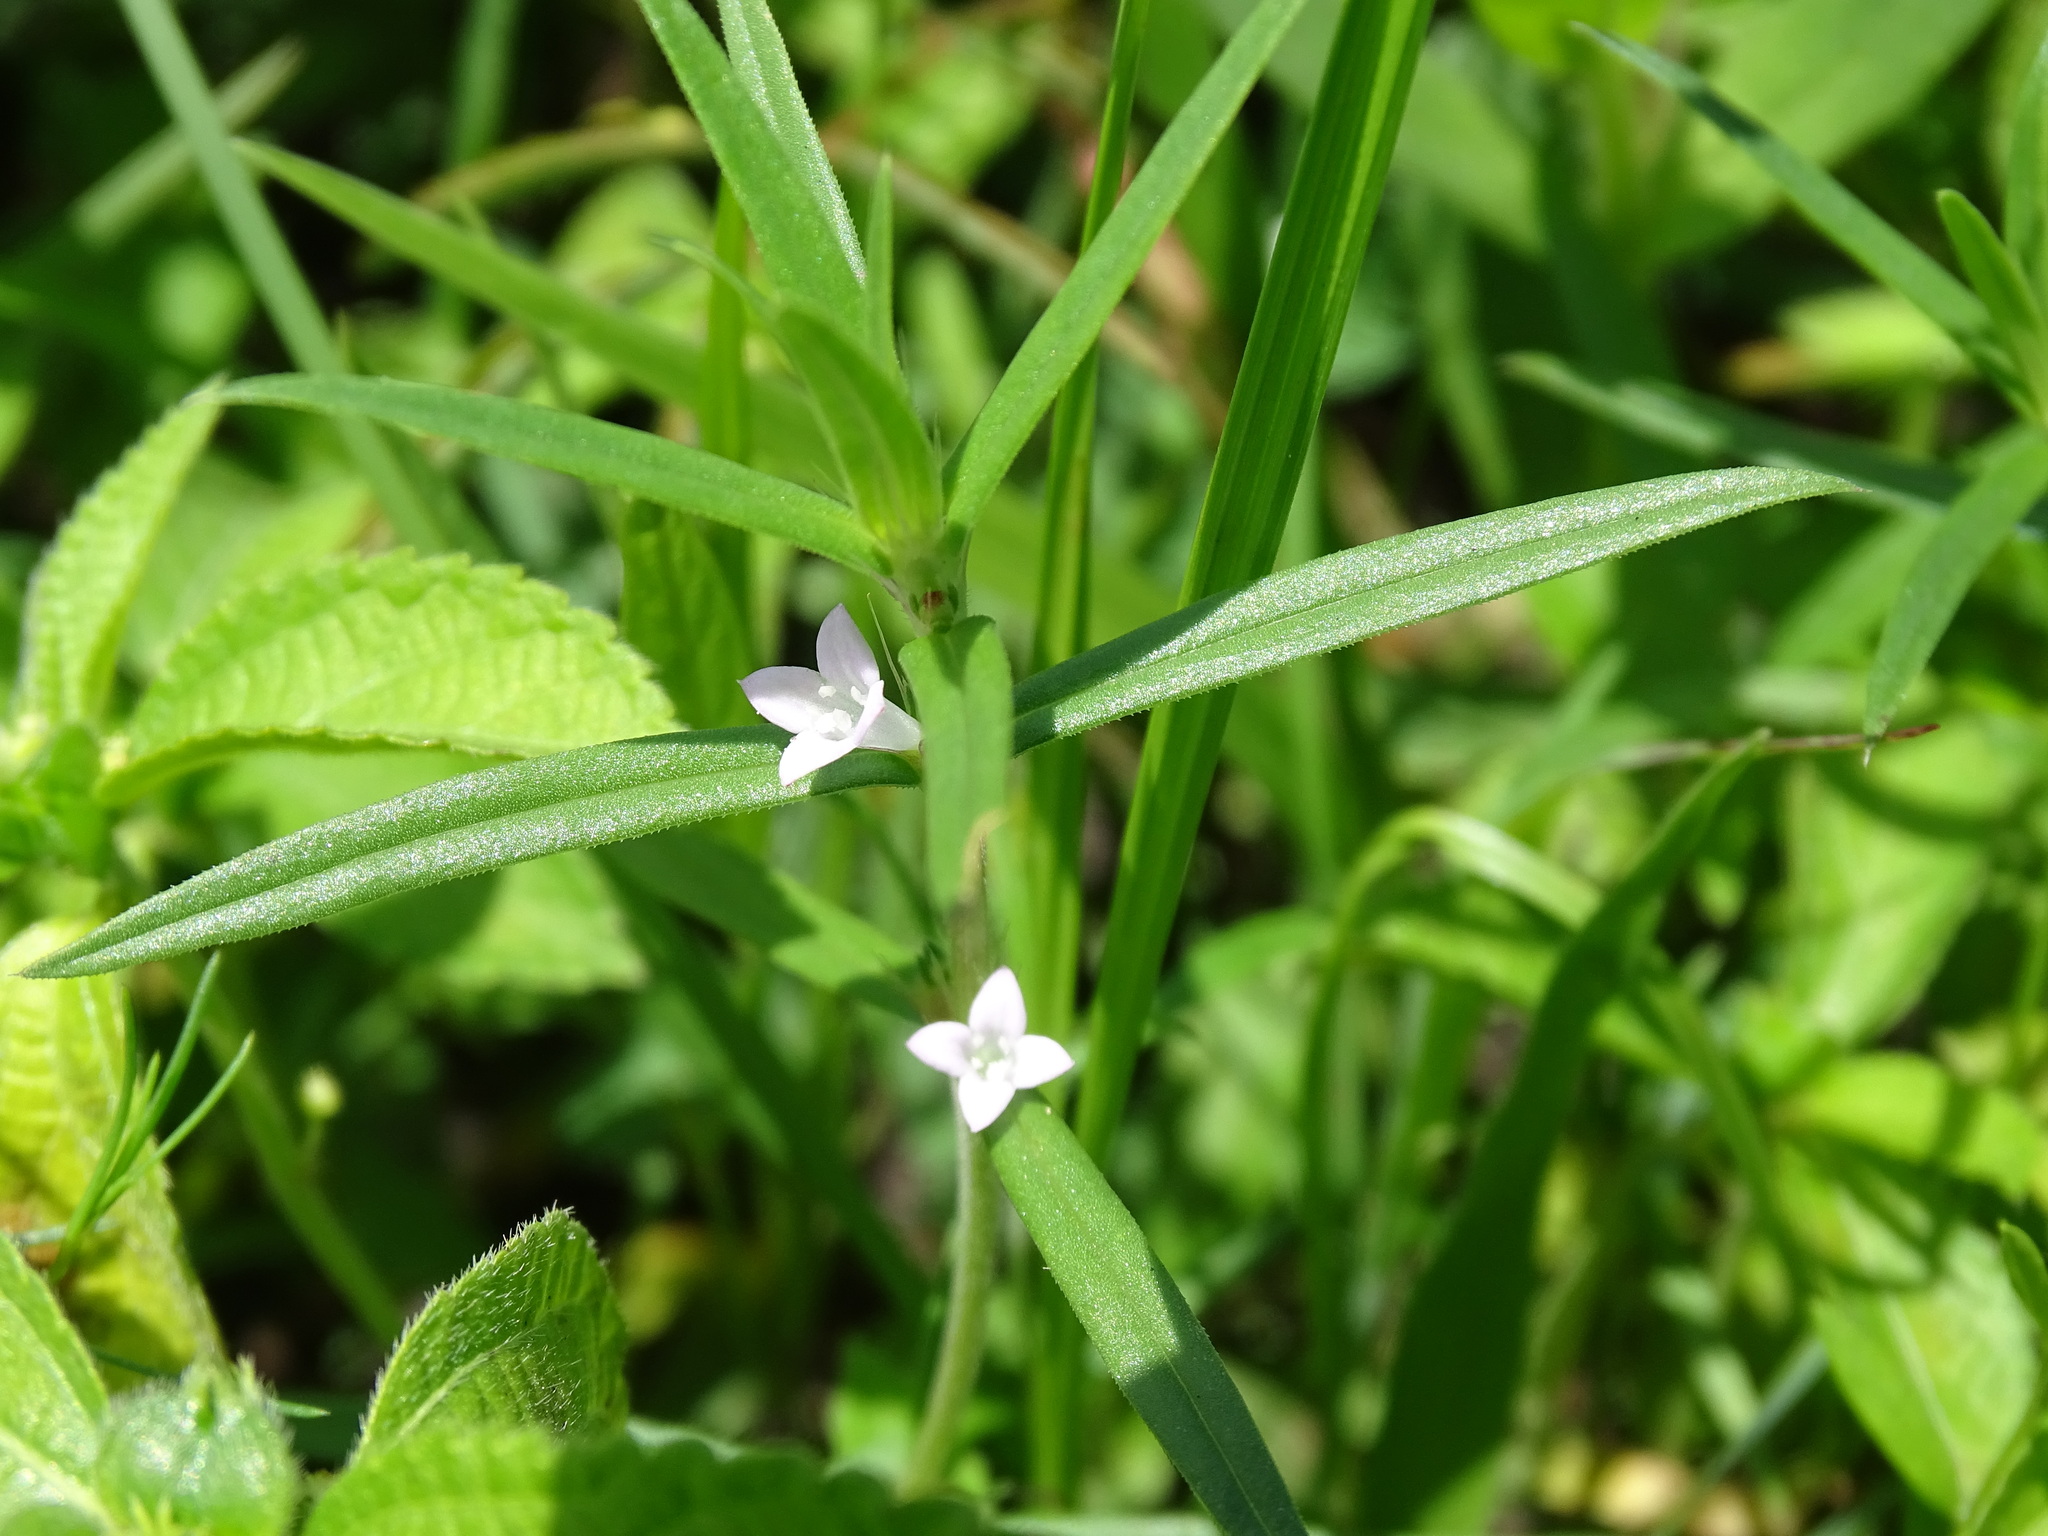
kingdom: Plantae
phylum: Tracheophyta
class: Magnoliopsida
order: Gentianales
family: Rubiaceae
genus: Hexasepalum
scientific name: Hexasepalum teres
